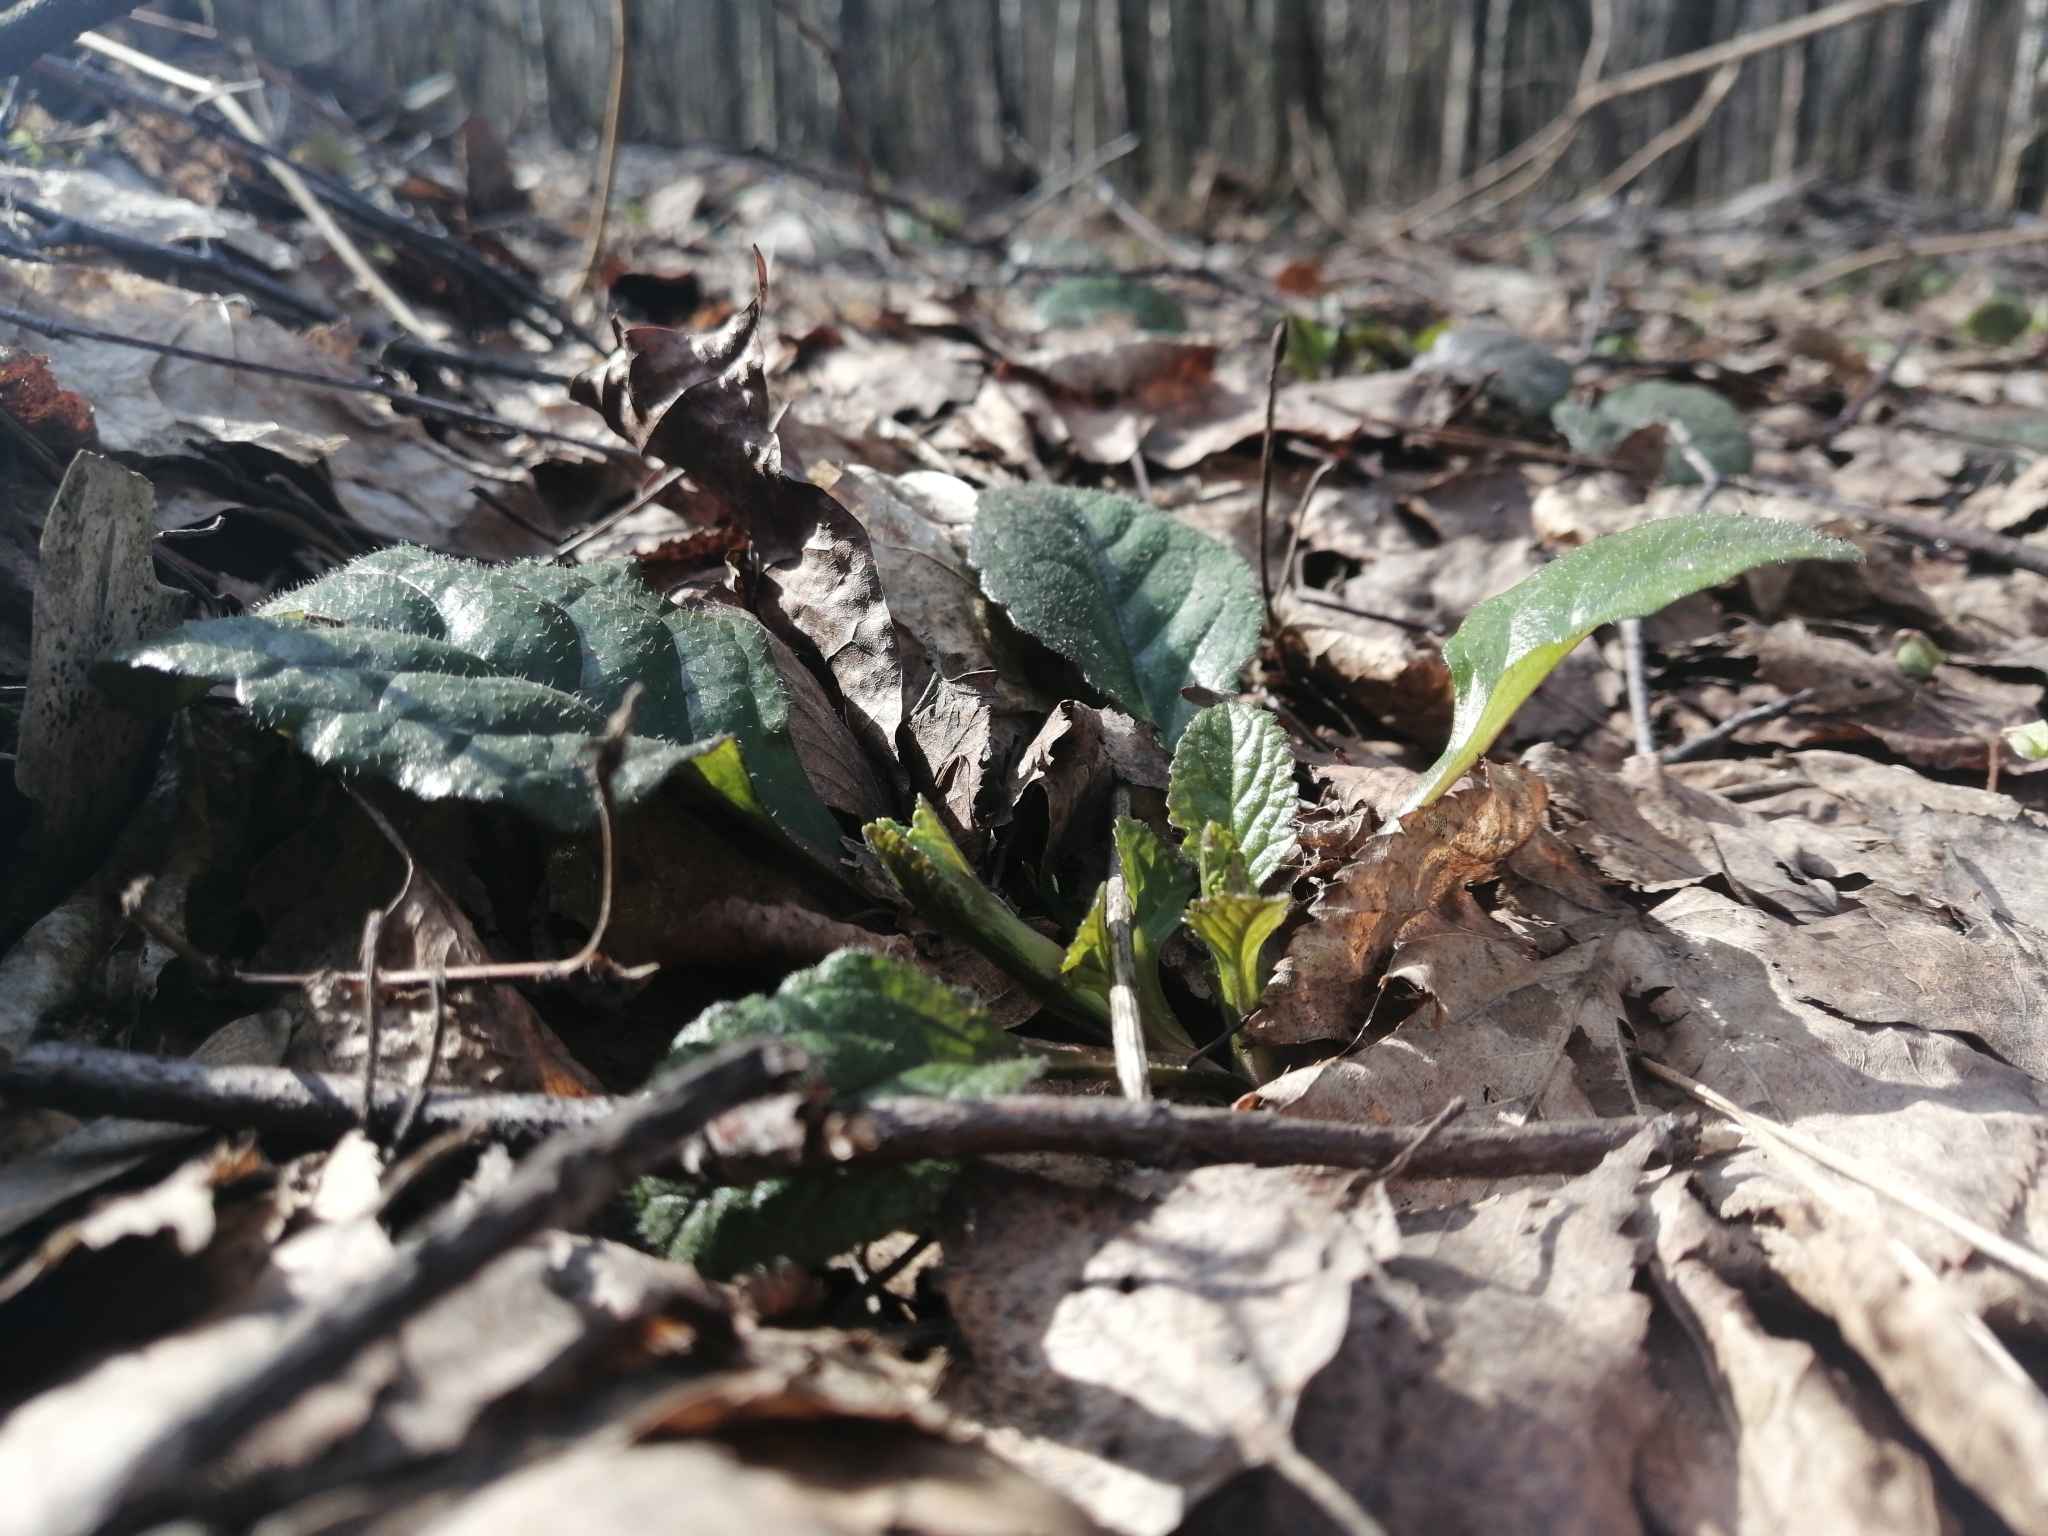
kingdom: Plantae
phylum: Tracheophyta
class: Magnoliopsida
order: Lamiales
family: Lamiaceae
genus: Ajuga
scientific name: Ajuga reptans
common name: Bugle
